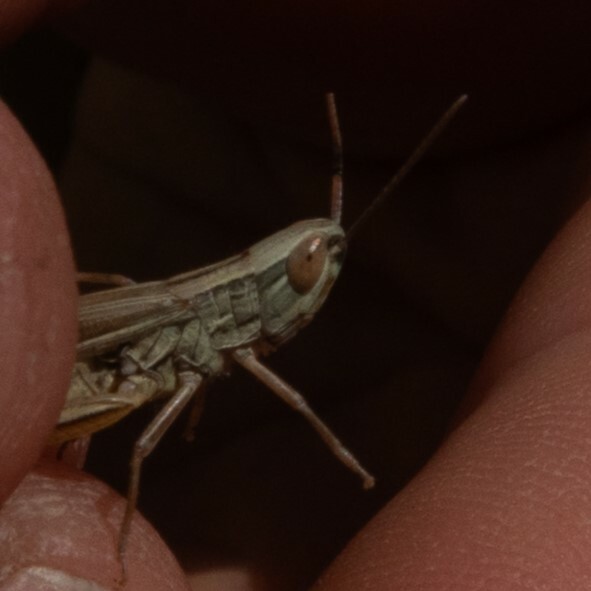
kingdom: Animalia
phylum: Arthropoda
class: Insecta
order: Orthoptera
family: Acrididae
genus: Euchorthippus
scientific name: Euchorthippus declivus
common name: Common straw grasshopper
